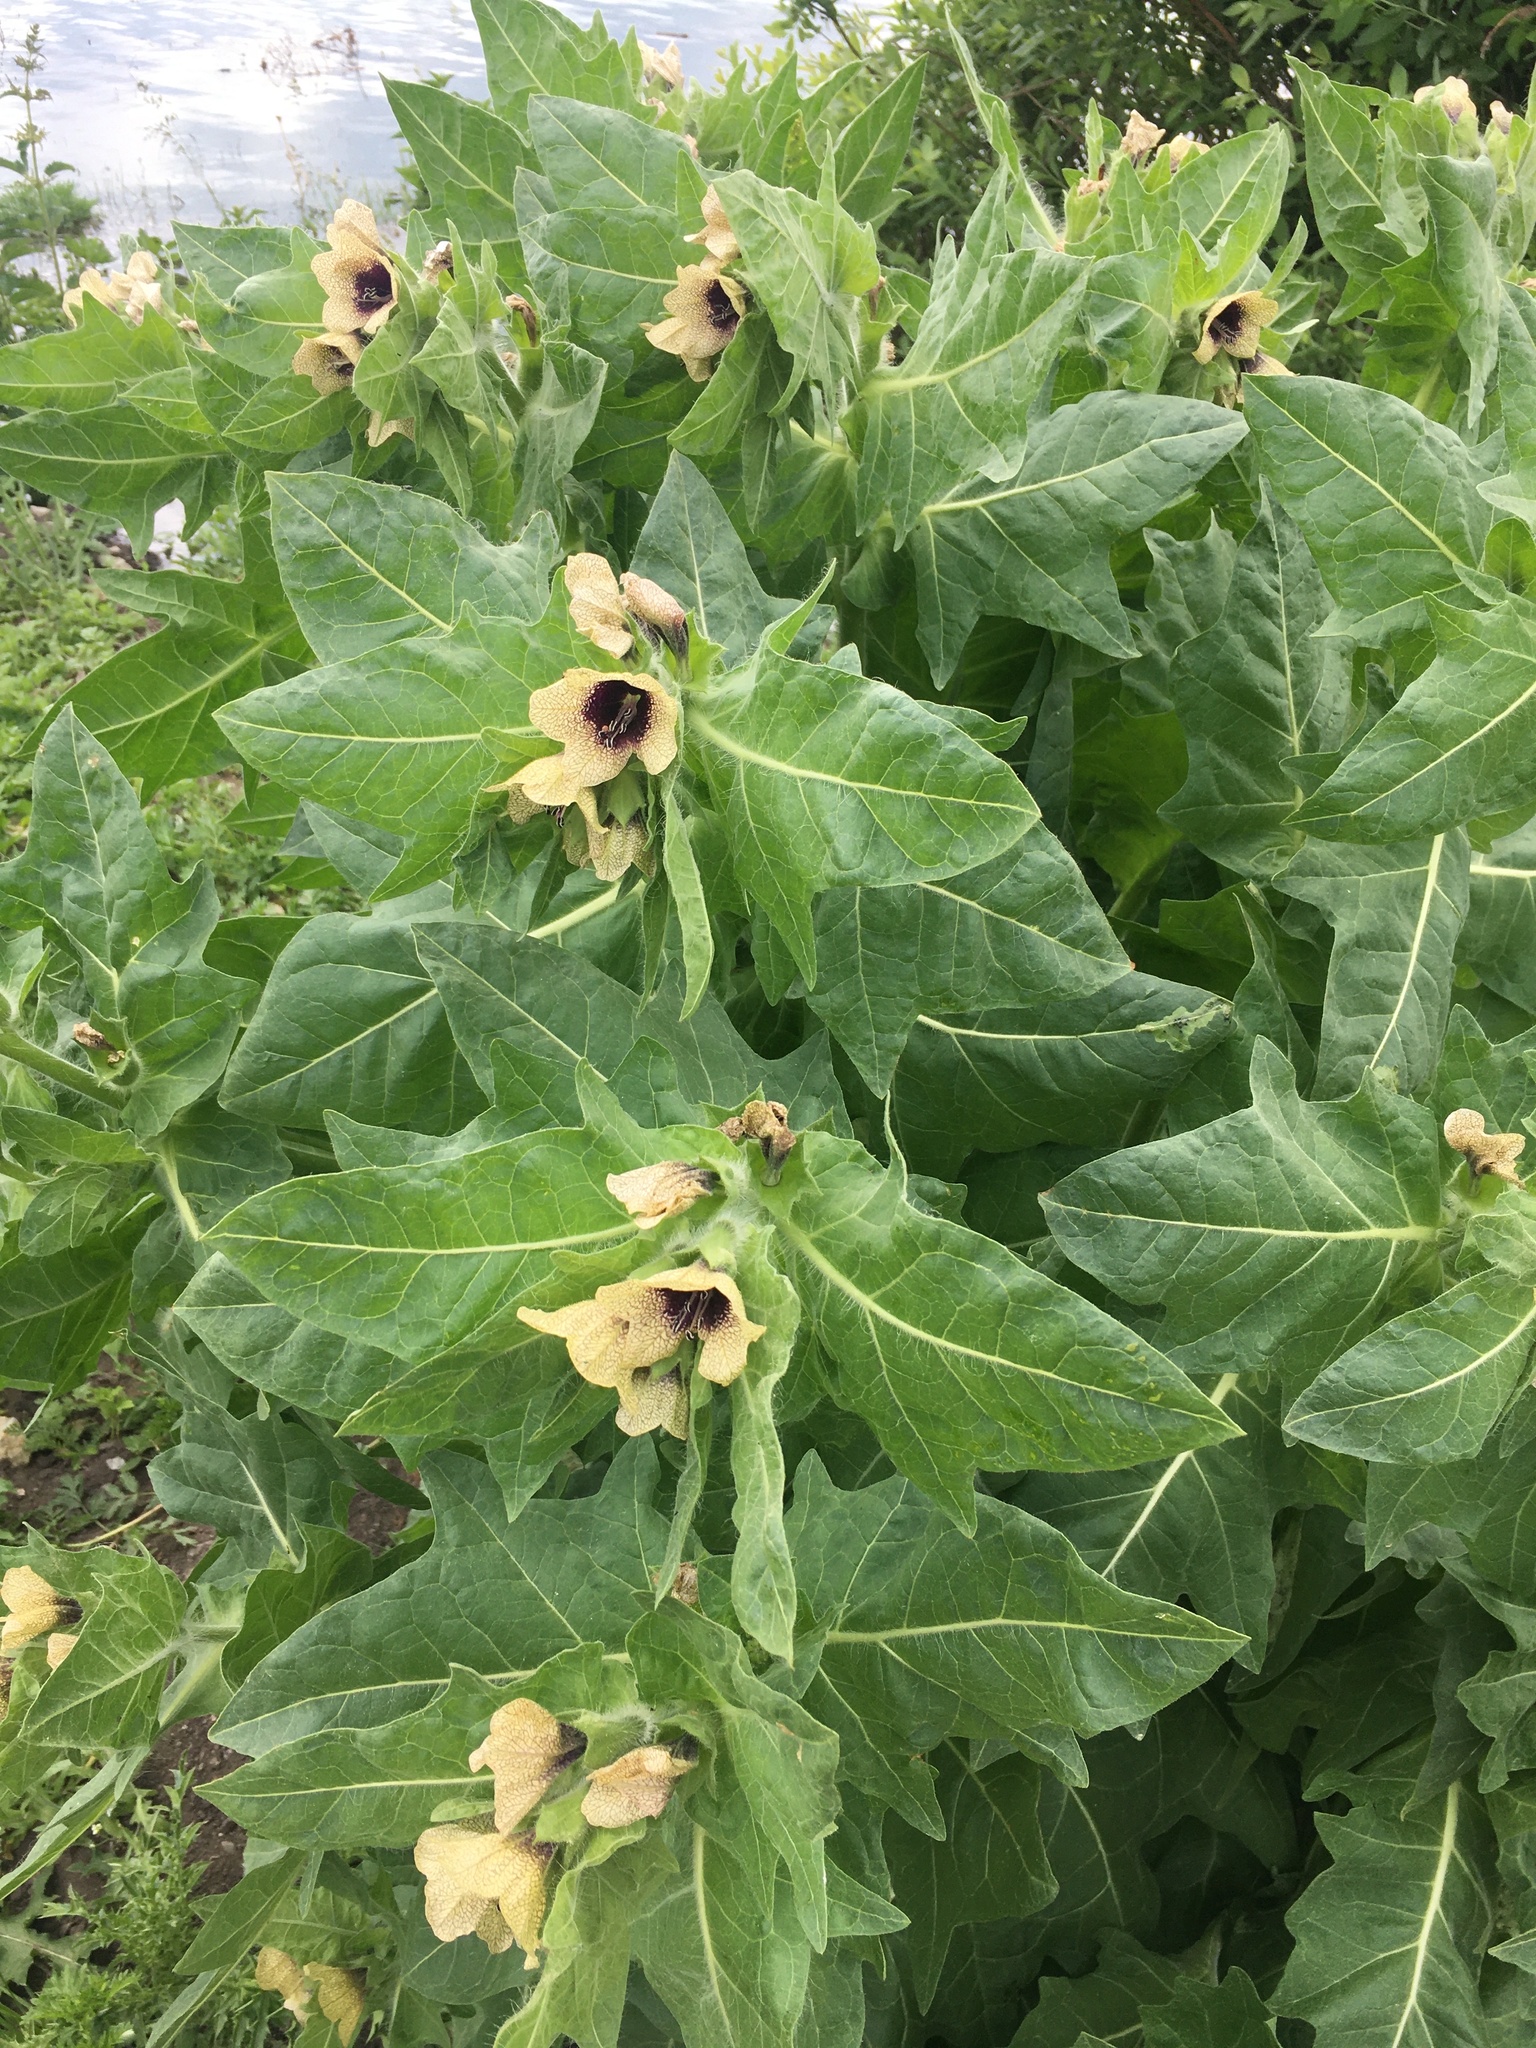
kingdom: Plantae
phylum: Tracheophyta
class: Magnoliopsida
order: Solanales
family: Solanaceae
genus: Hyoscyamus
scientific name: Hyoscyamus niger
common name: Henbane
